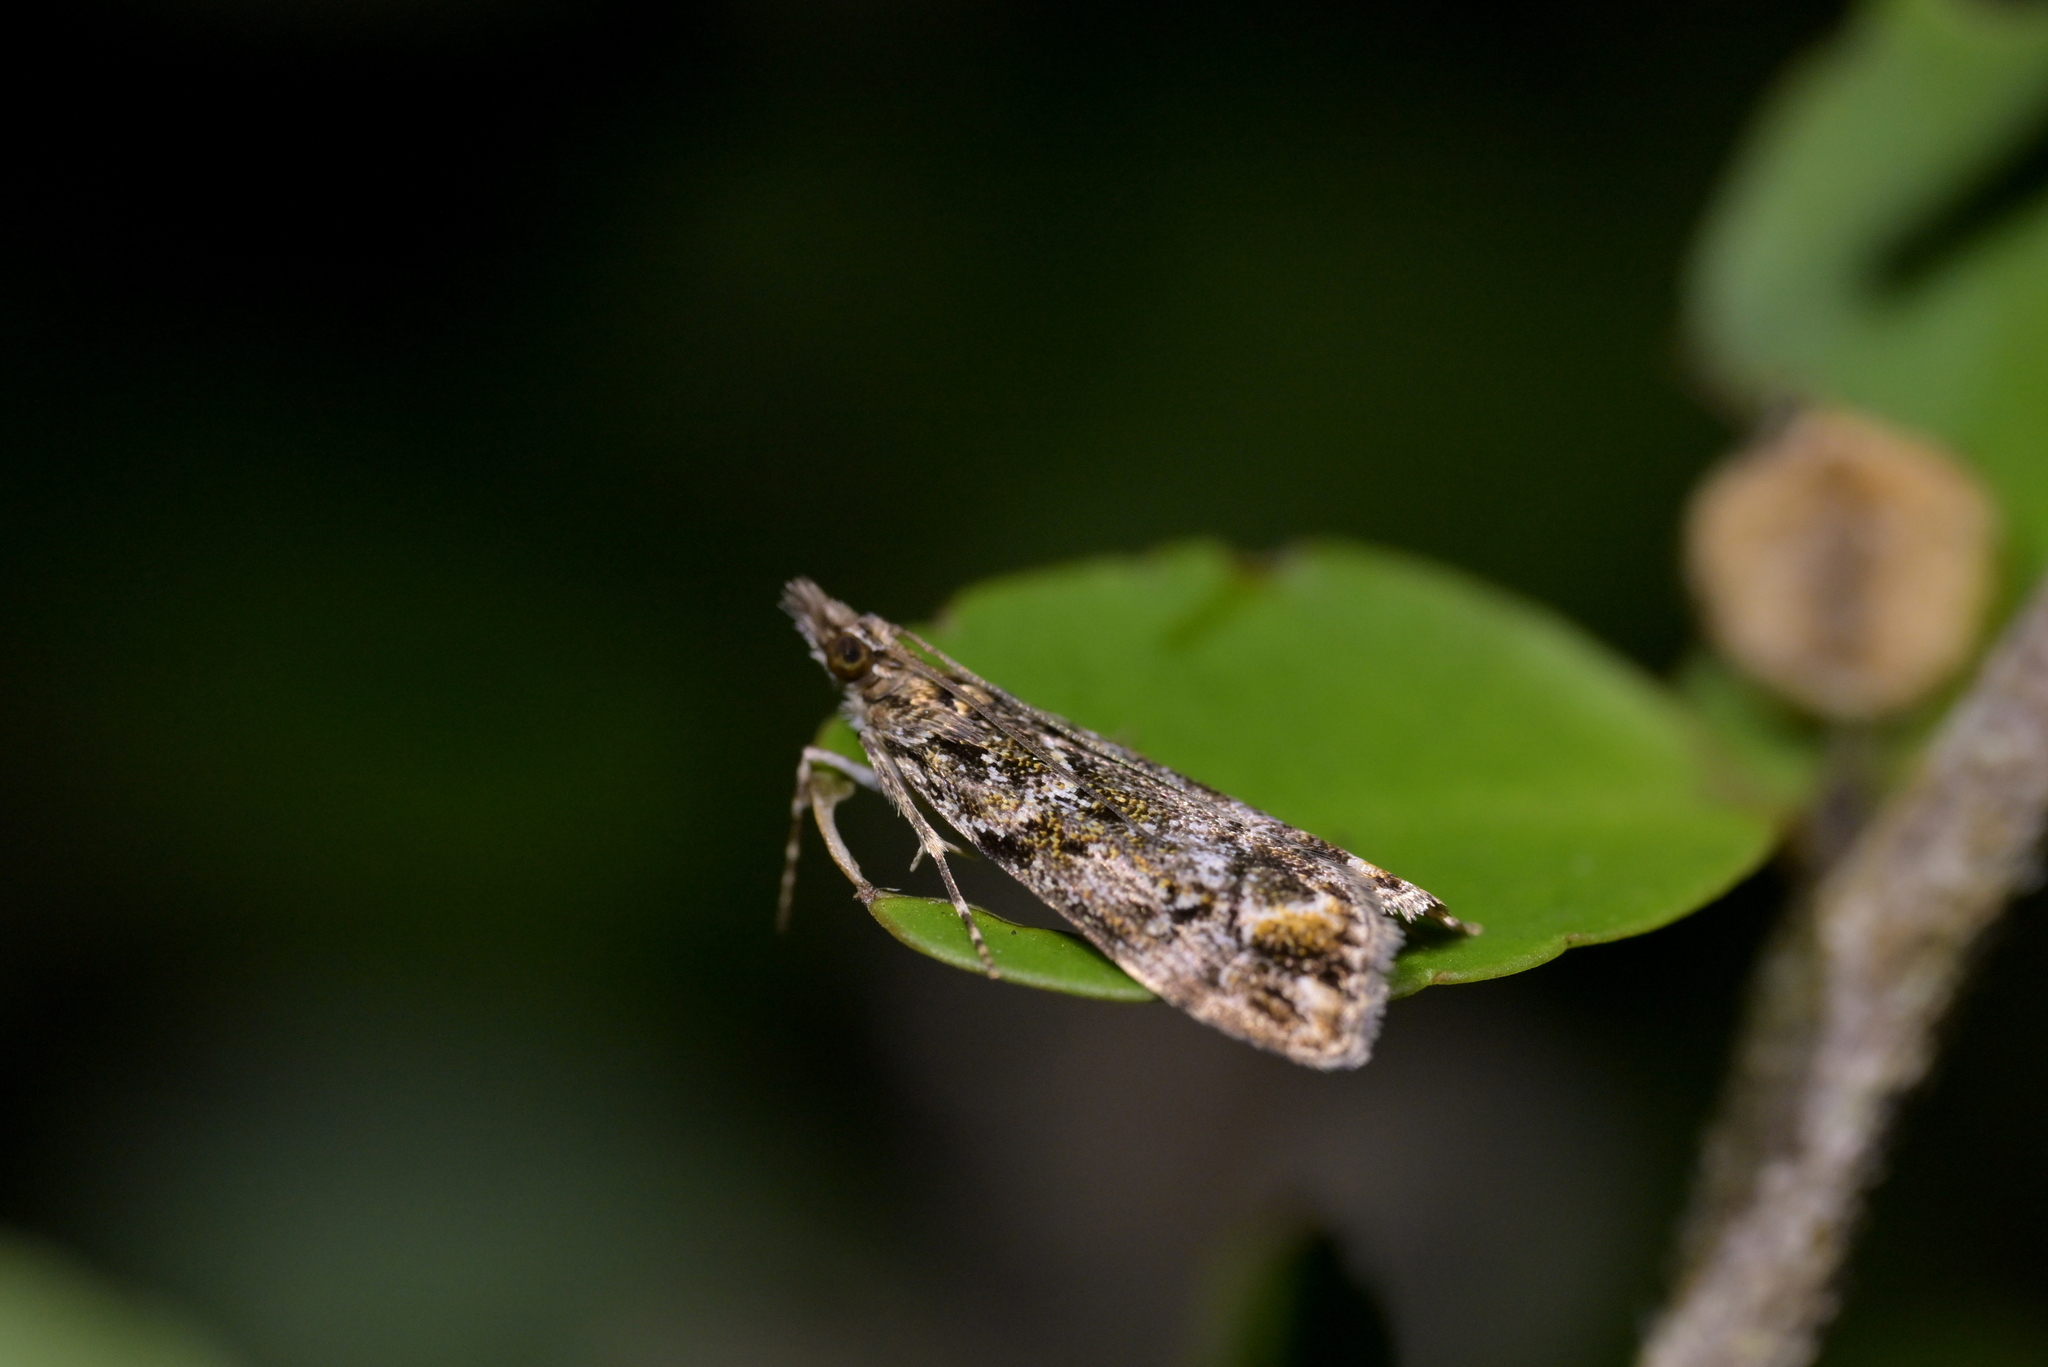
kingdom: Animalia
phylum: Arthropoda
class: Insecta
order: Lepidoptera
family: Crambidae
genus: Eudonia
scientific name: Eudonia minualis
